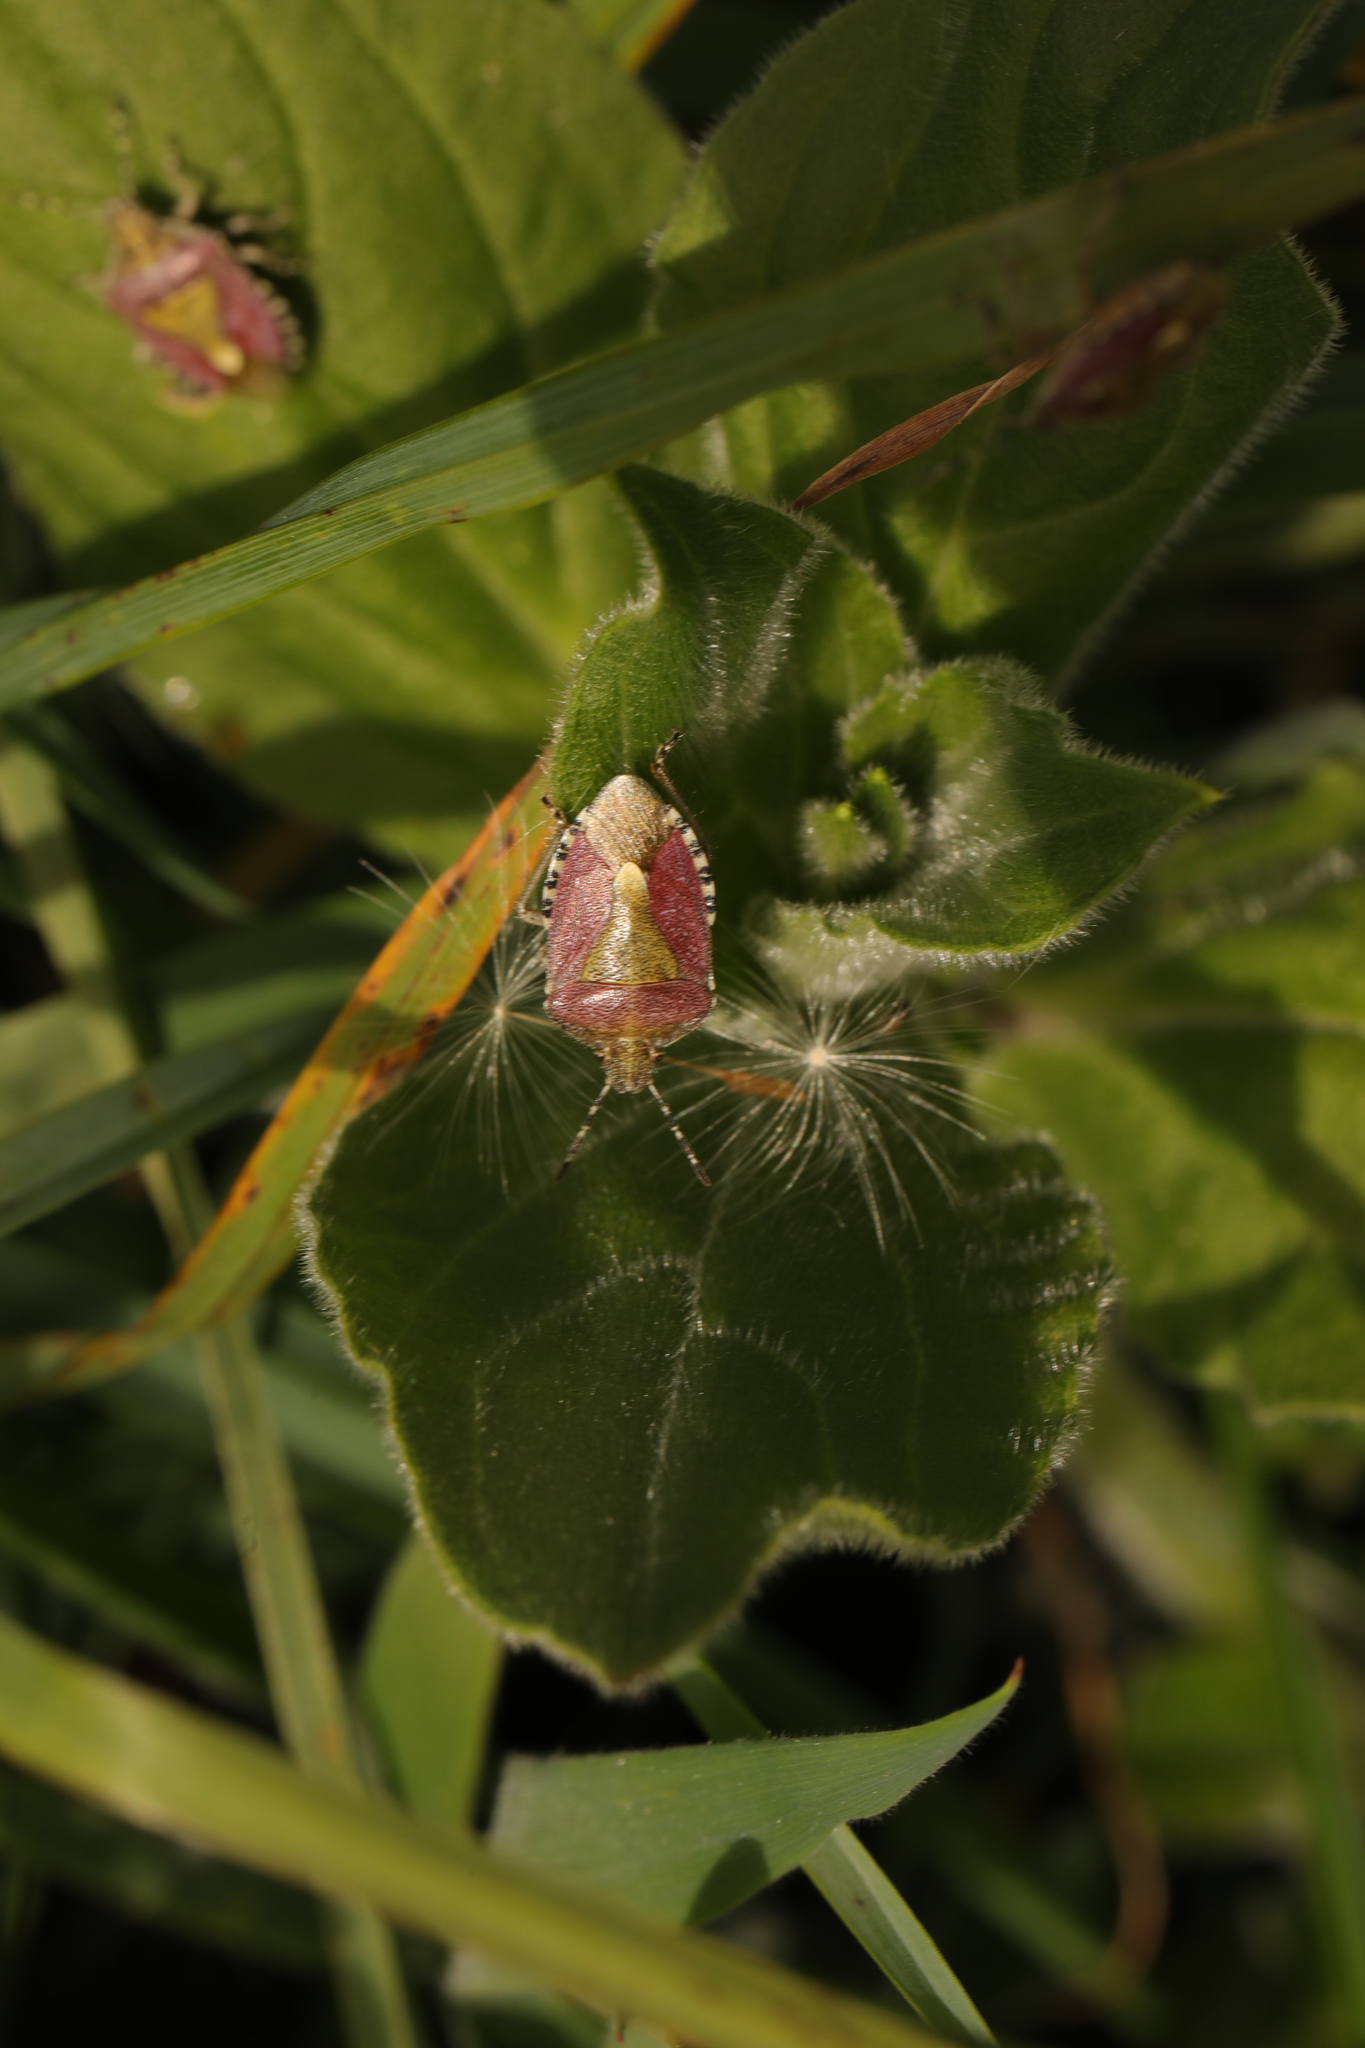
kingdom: Animalia
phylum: Arthropoda
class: Insecta
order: Hemiptera
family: Pentatomidae
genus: Dolycoris
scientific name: Dolycoris baccarum
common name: Sloe bug
